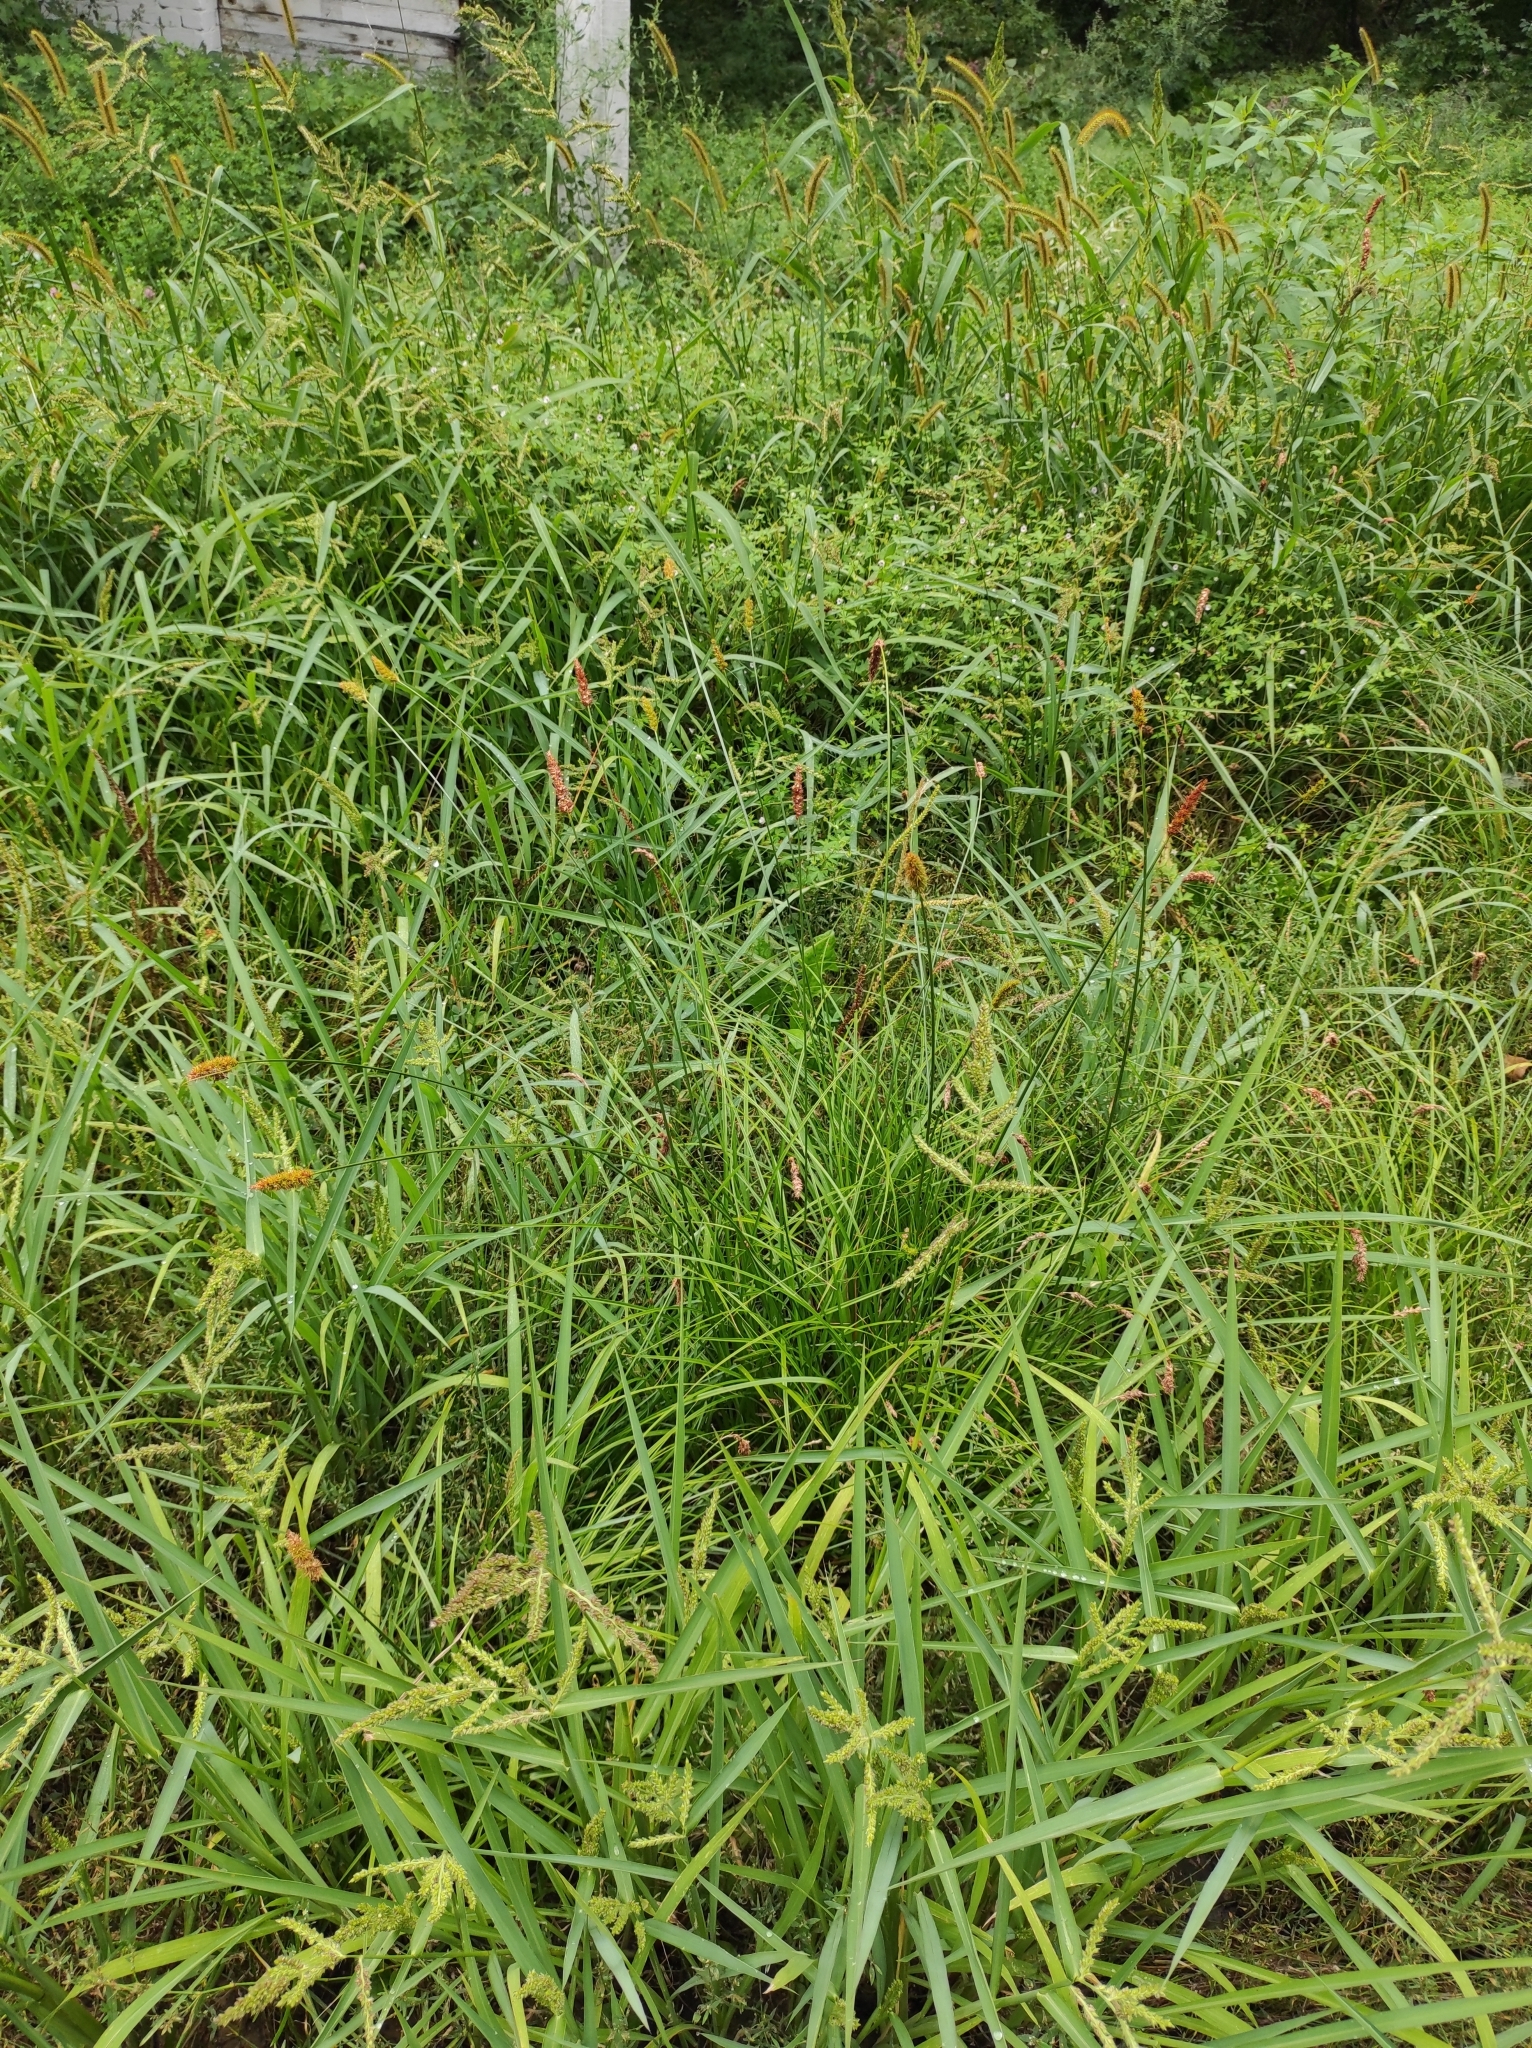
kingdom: Plantae
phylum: Tracheophyta
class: Liliopsida
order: Poales
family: Cyperaceae
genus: Carex
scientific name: Carex leiorhyncha
